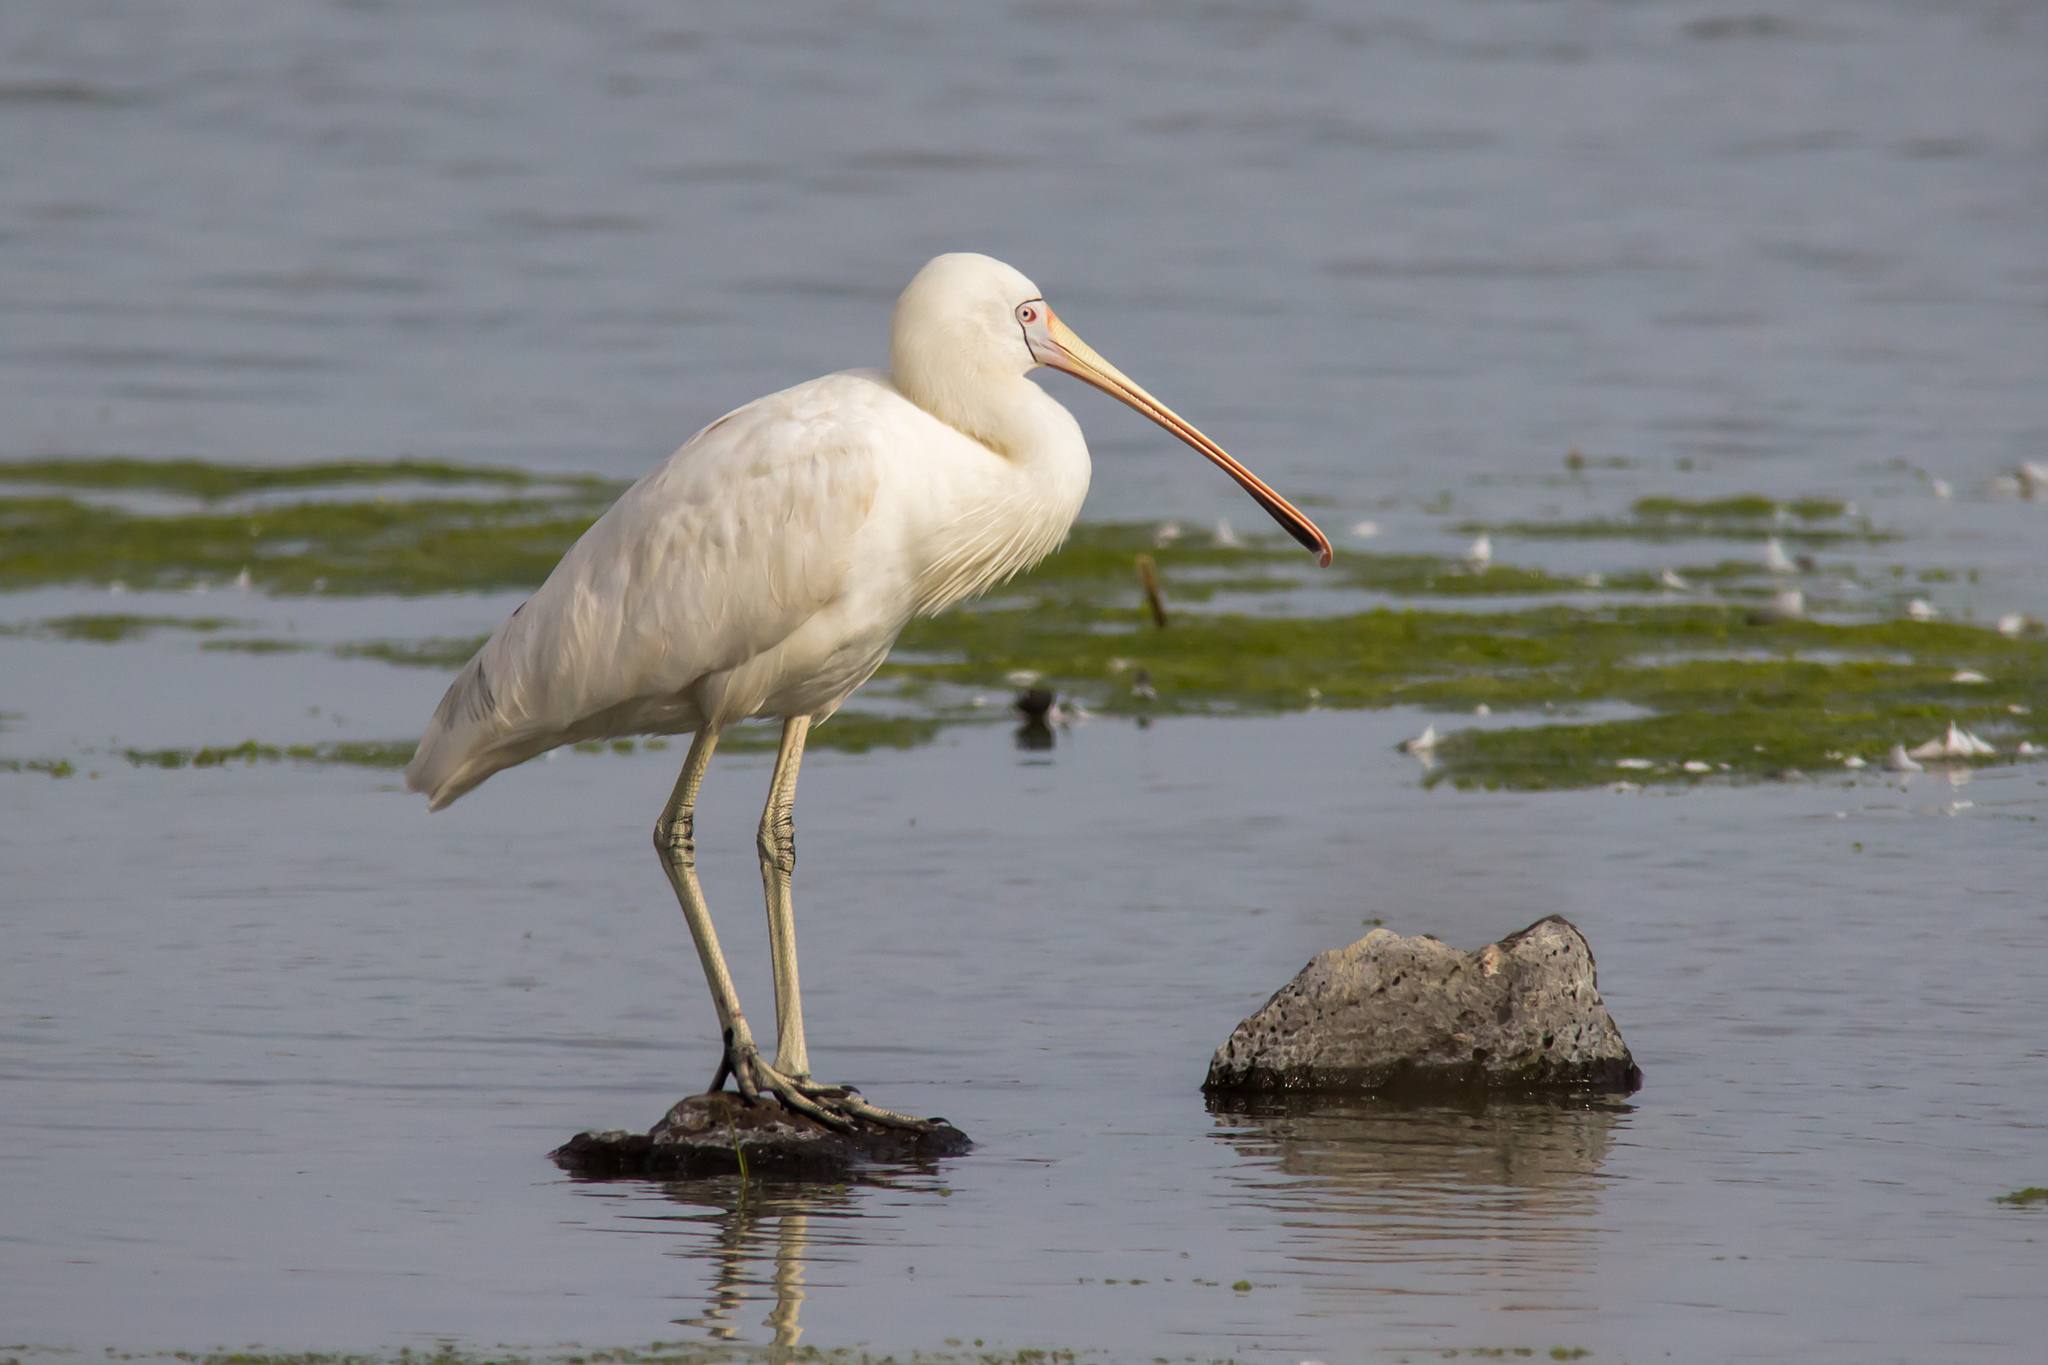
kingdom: Animalia
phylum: Chordata
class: Aves
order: Pelecaniformes
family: Threskiornithidae
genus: Platalea
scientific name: Platalea flavipes
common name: Yellow-billed spoonbill
